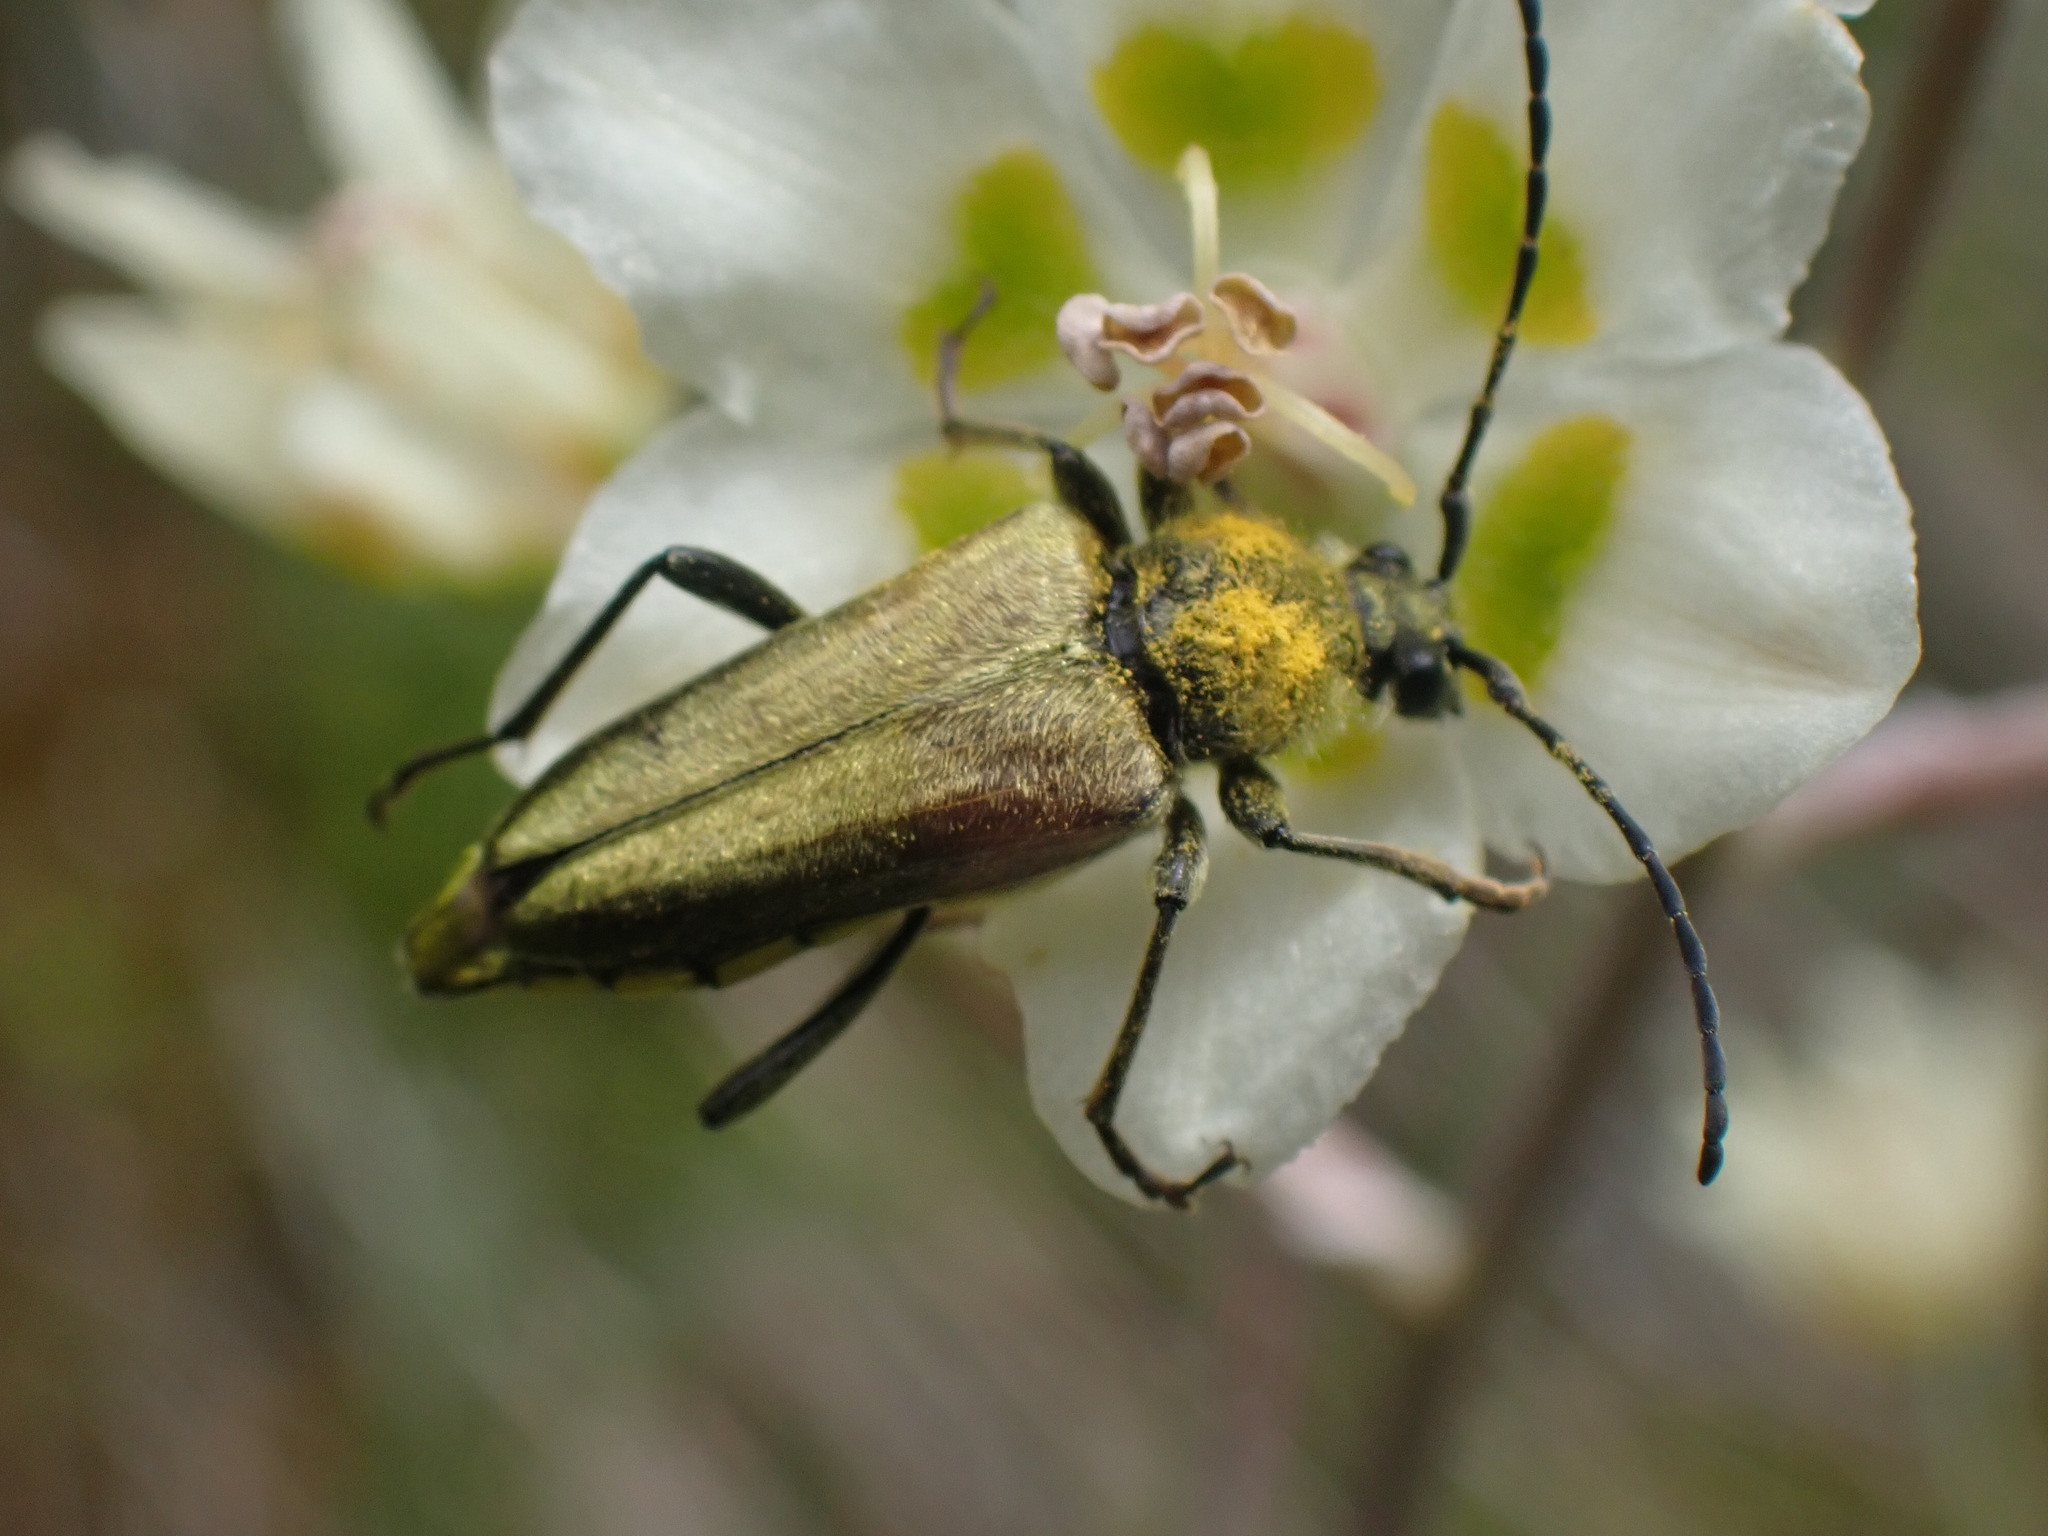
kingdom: Animalia
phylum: Arthropoda
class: Insecta
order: Coleoptera
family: Cerambycidae
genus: Cosmosalia
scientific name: Cosmosalia chrysocoma
